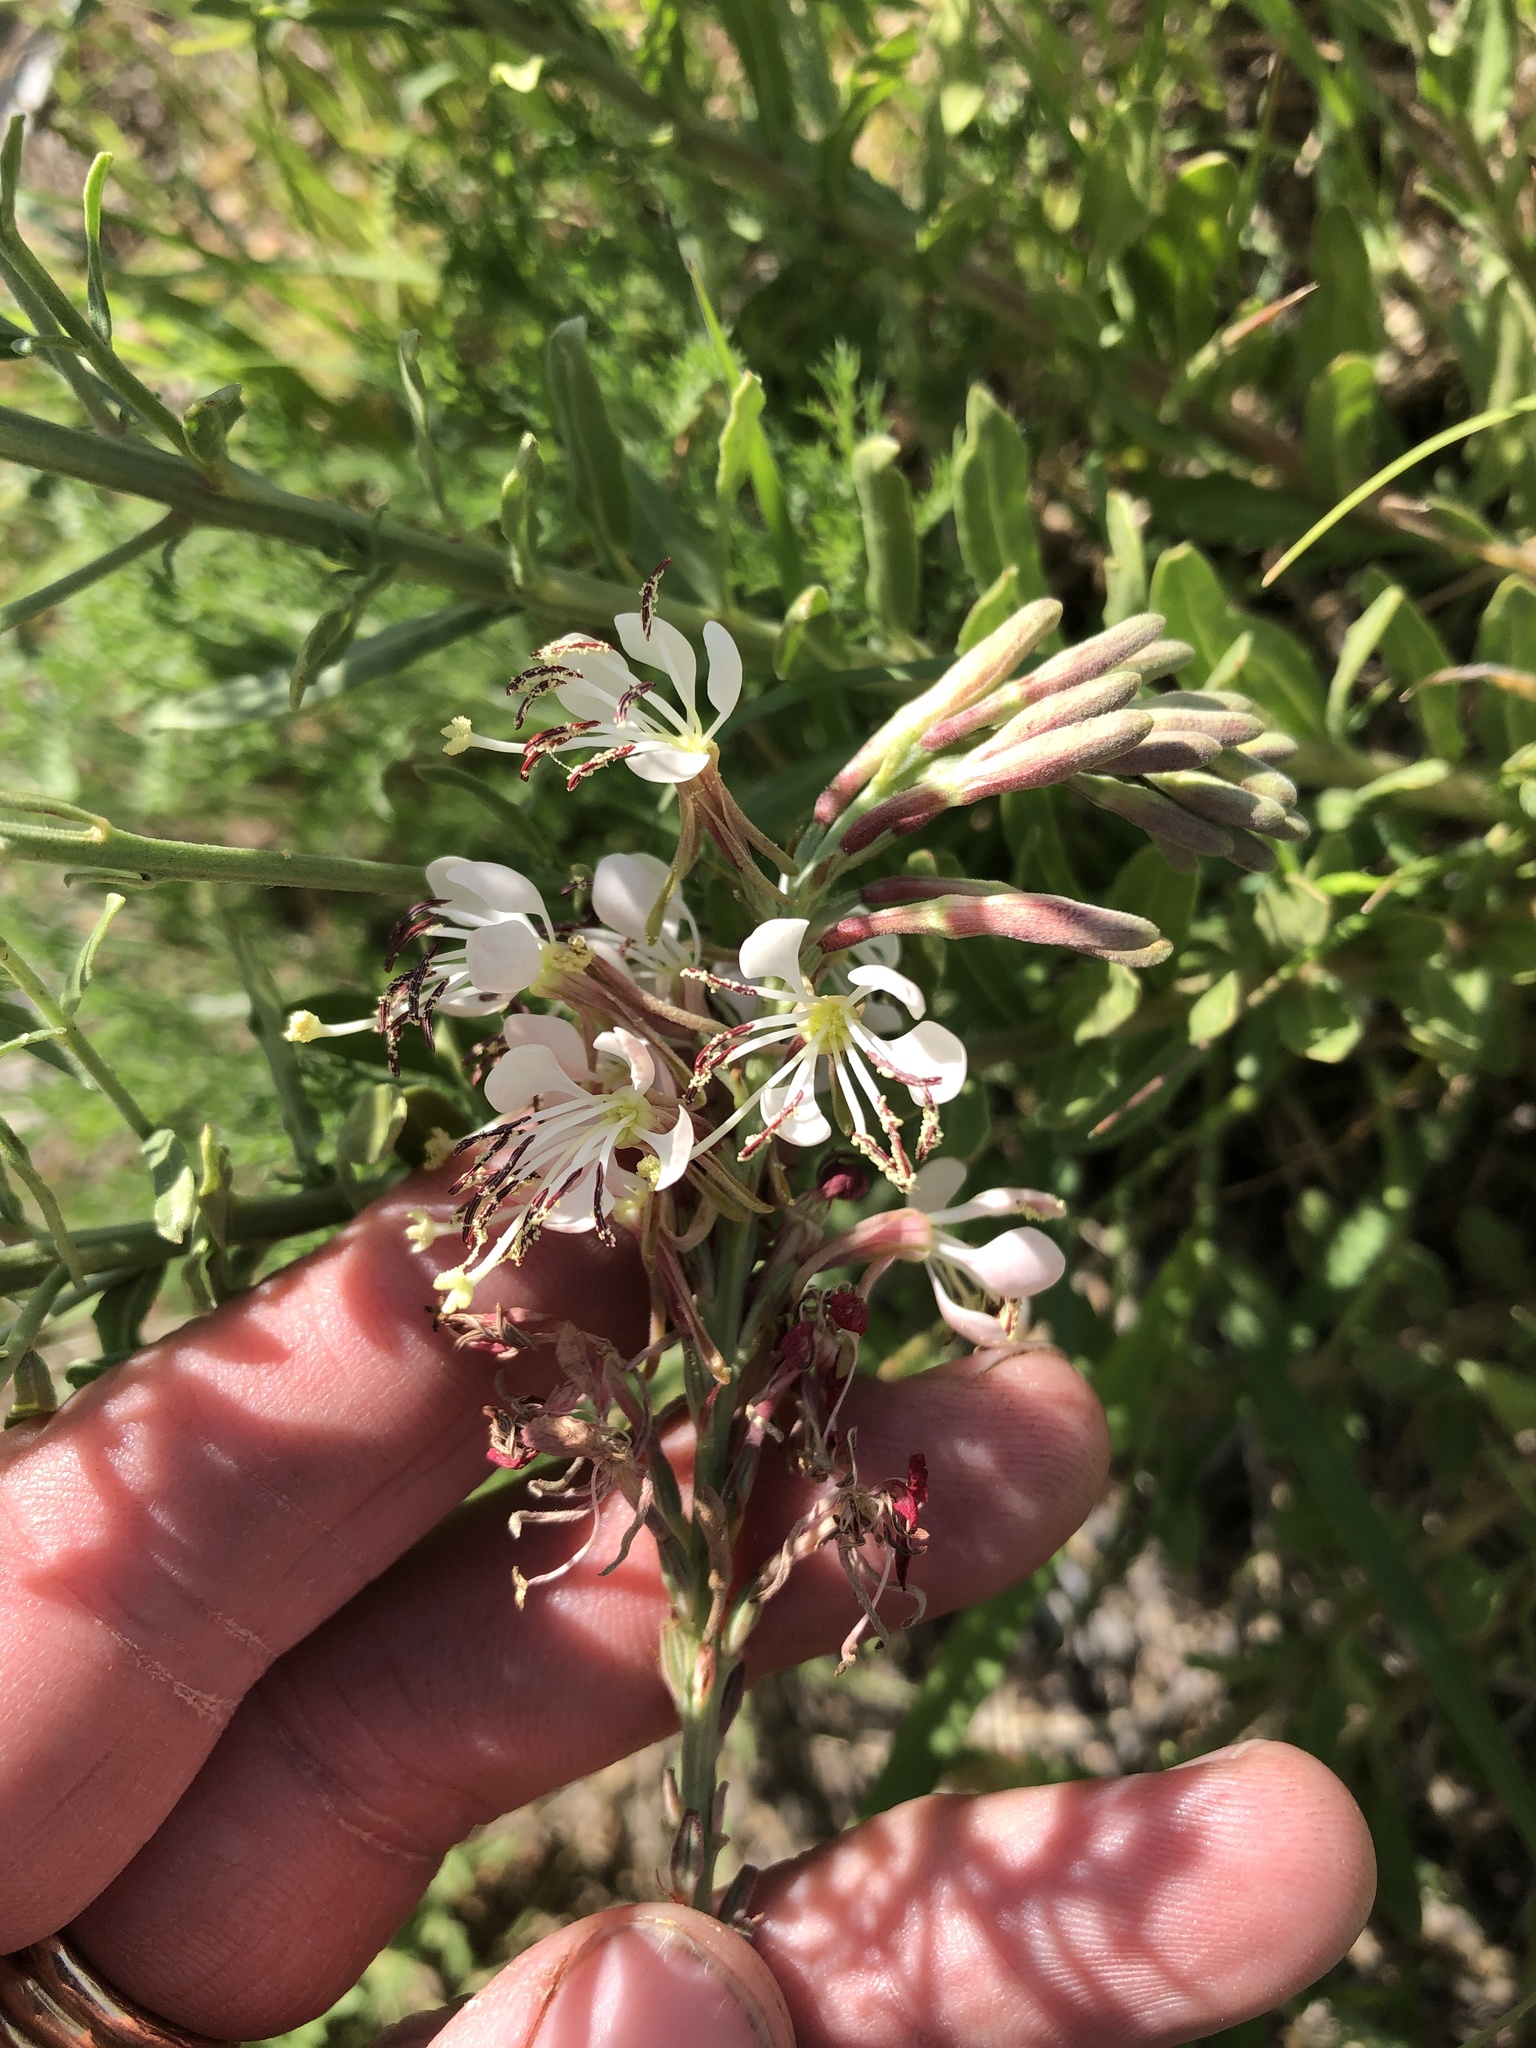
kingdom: Plantae
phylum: Tracheophyta
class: Magnoliopsida
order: Myrtales
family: Onagraceae
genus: Oenothera
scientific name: Oenothera suffrutescens
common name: Scarlet beeblossom
